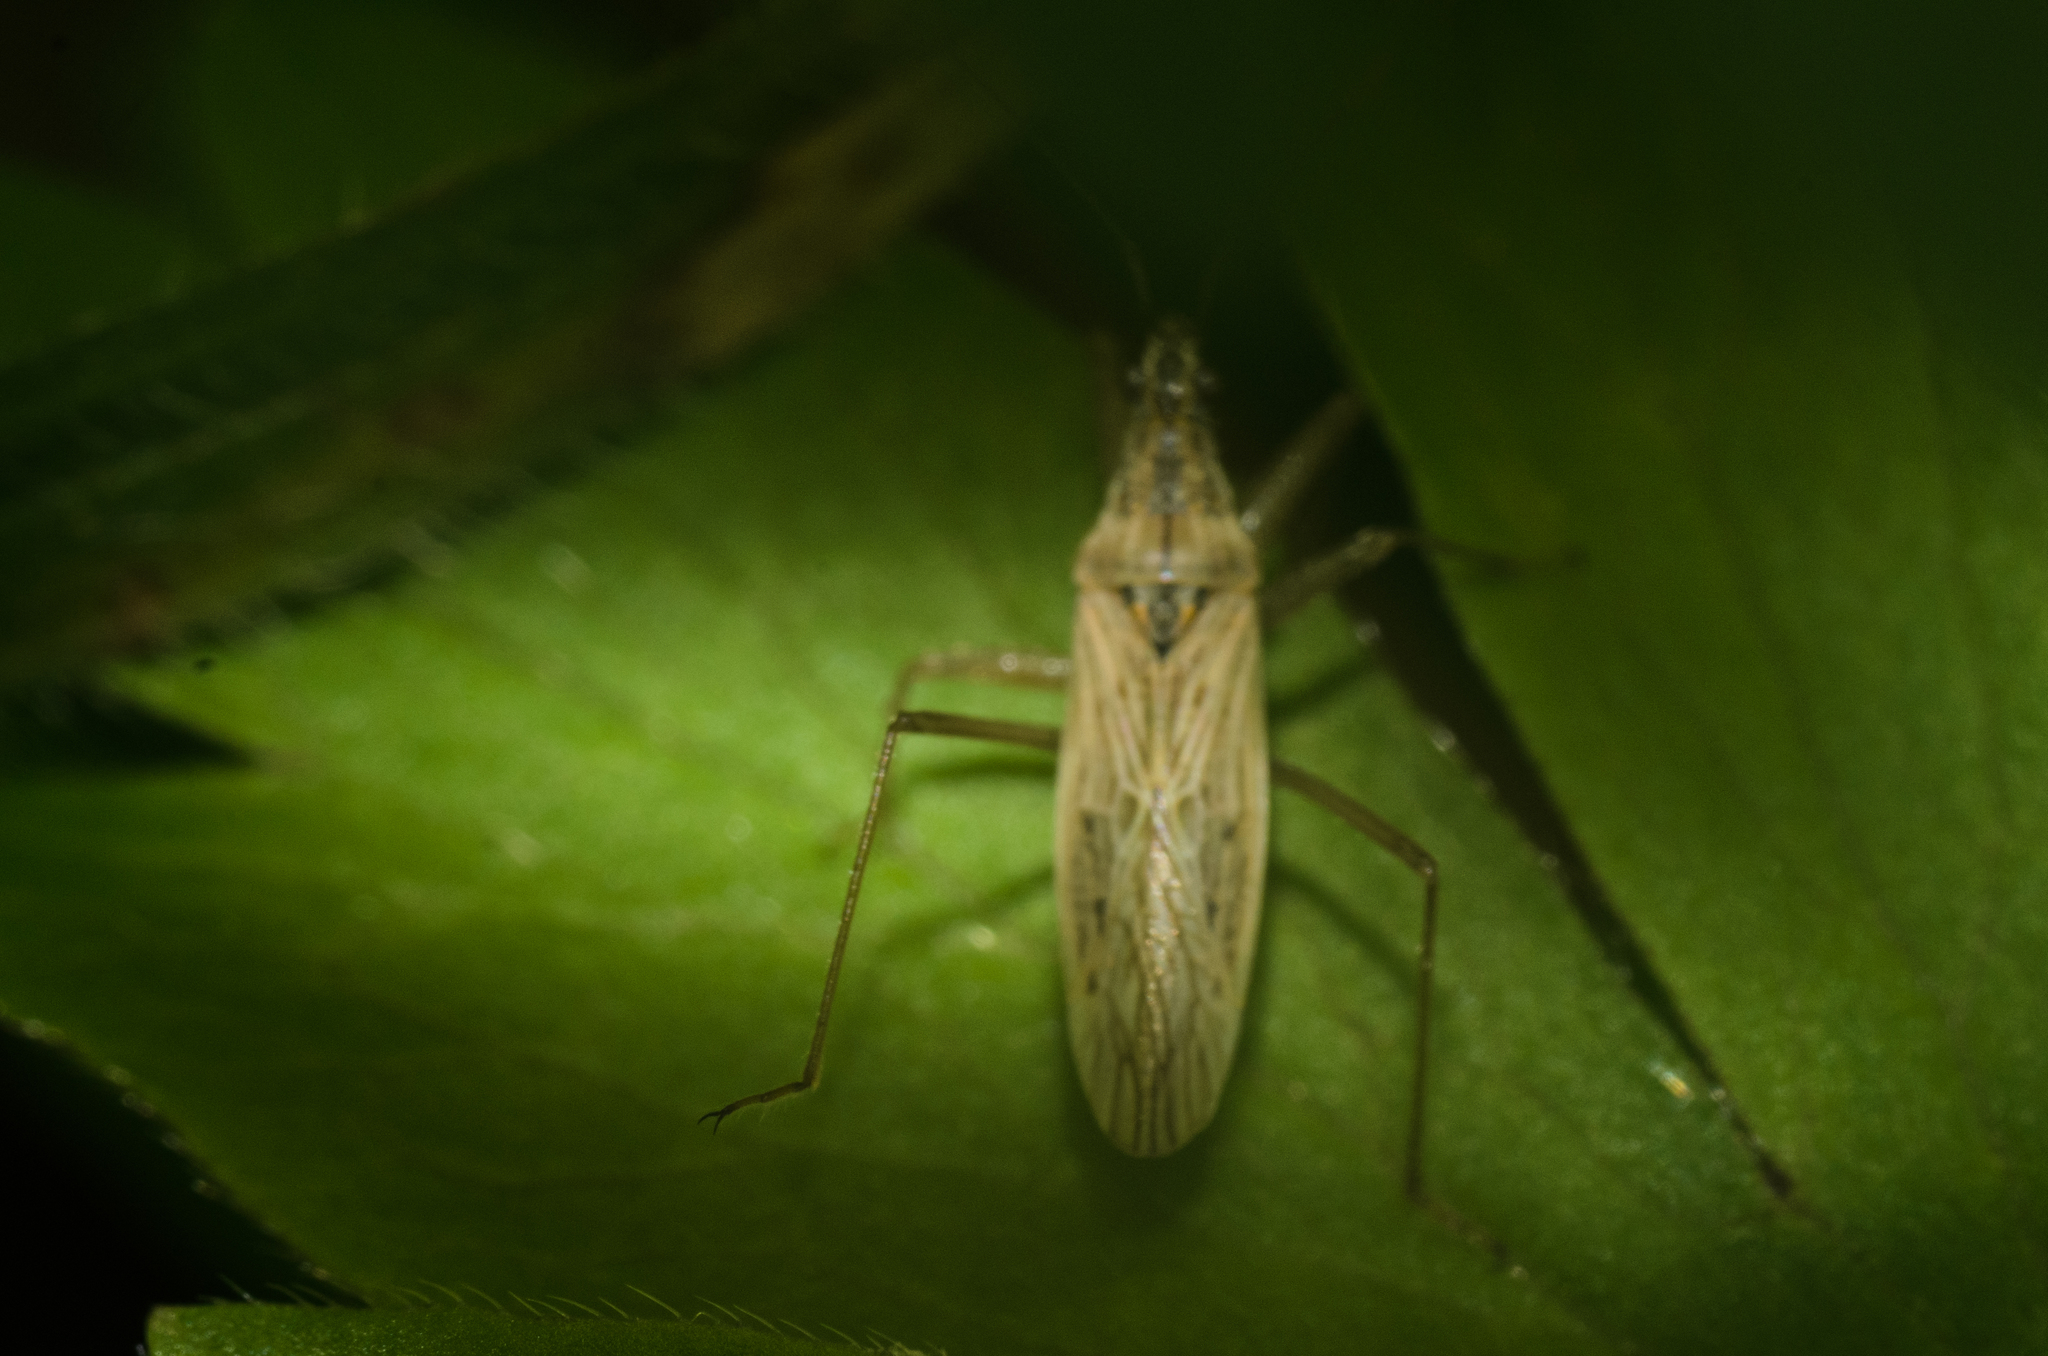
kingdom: Animalia
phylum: Arthropoda
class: Insecta
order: Hemiptera
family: Nabidae
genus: Nabis
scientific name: Nabis
